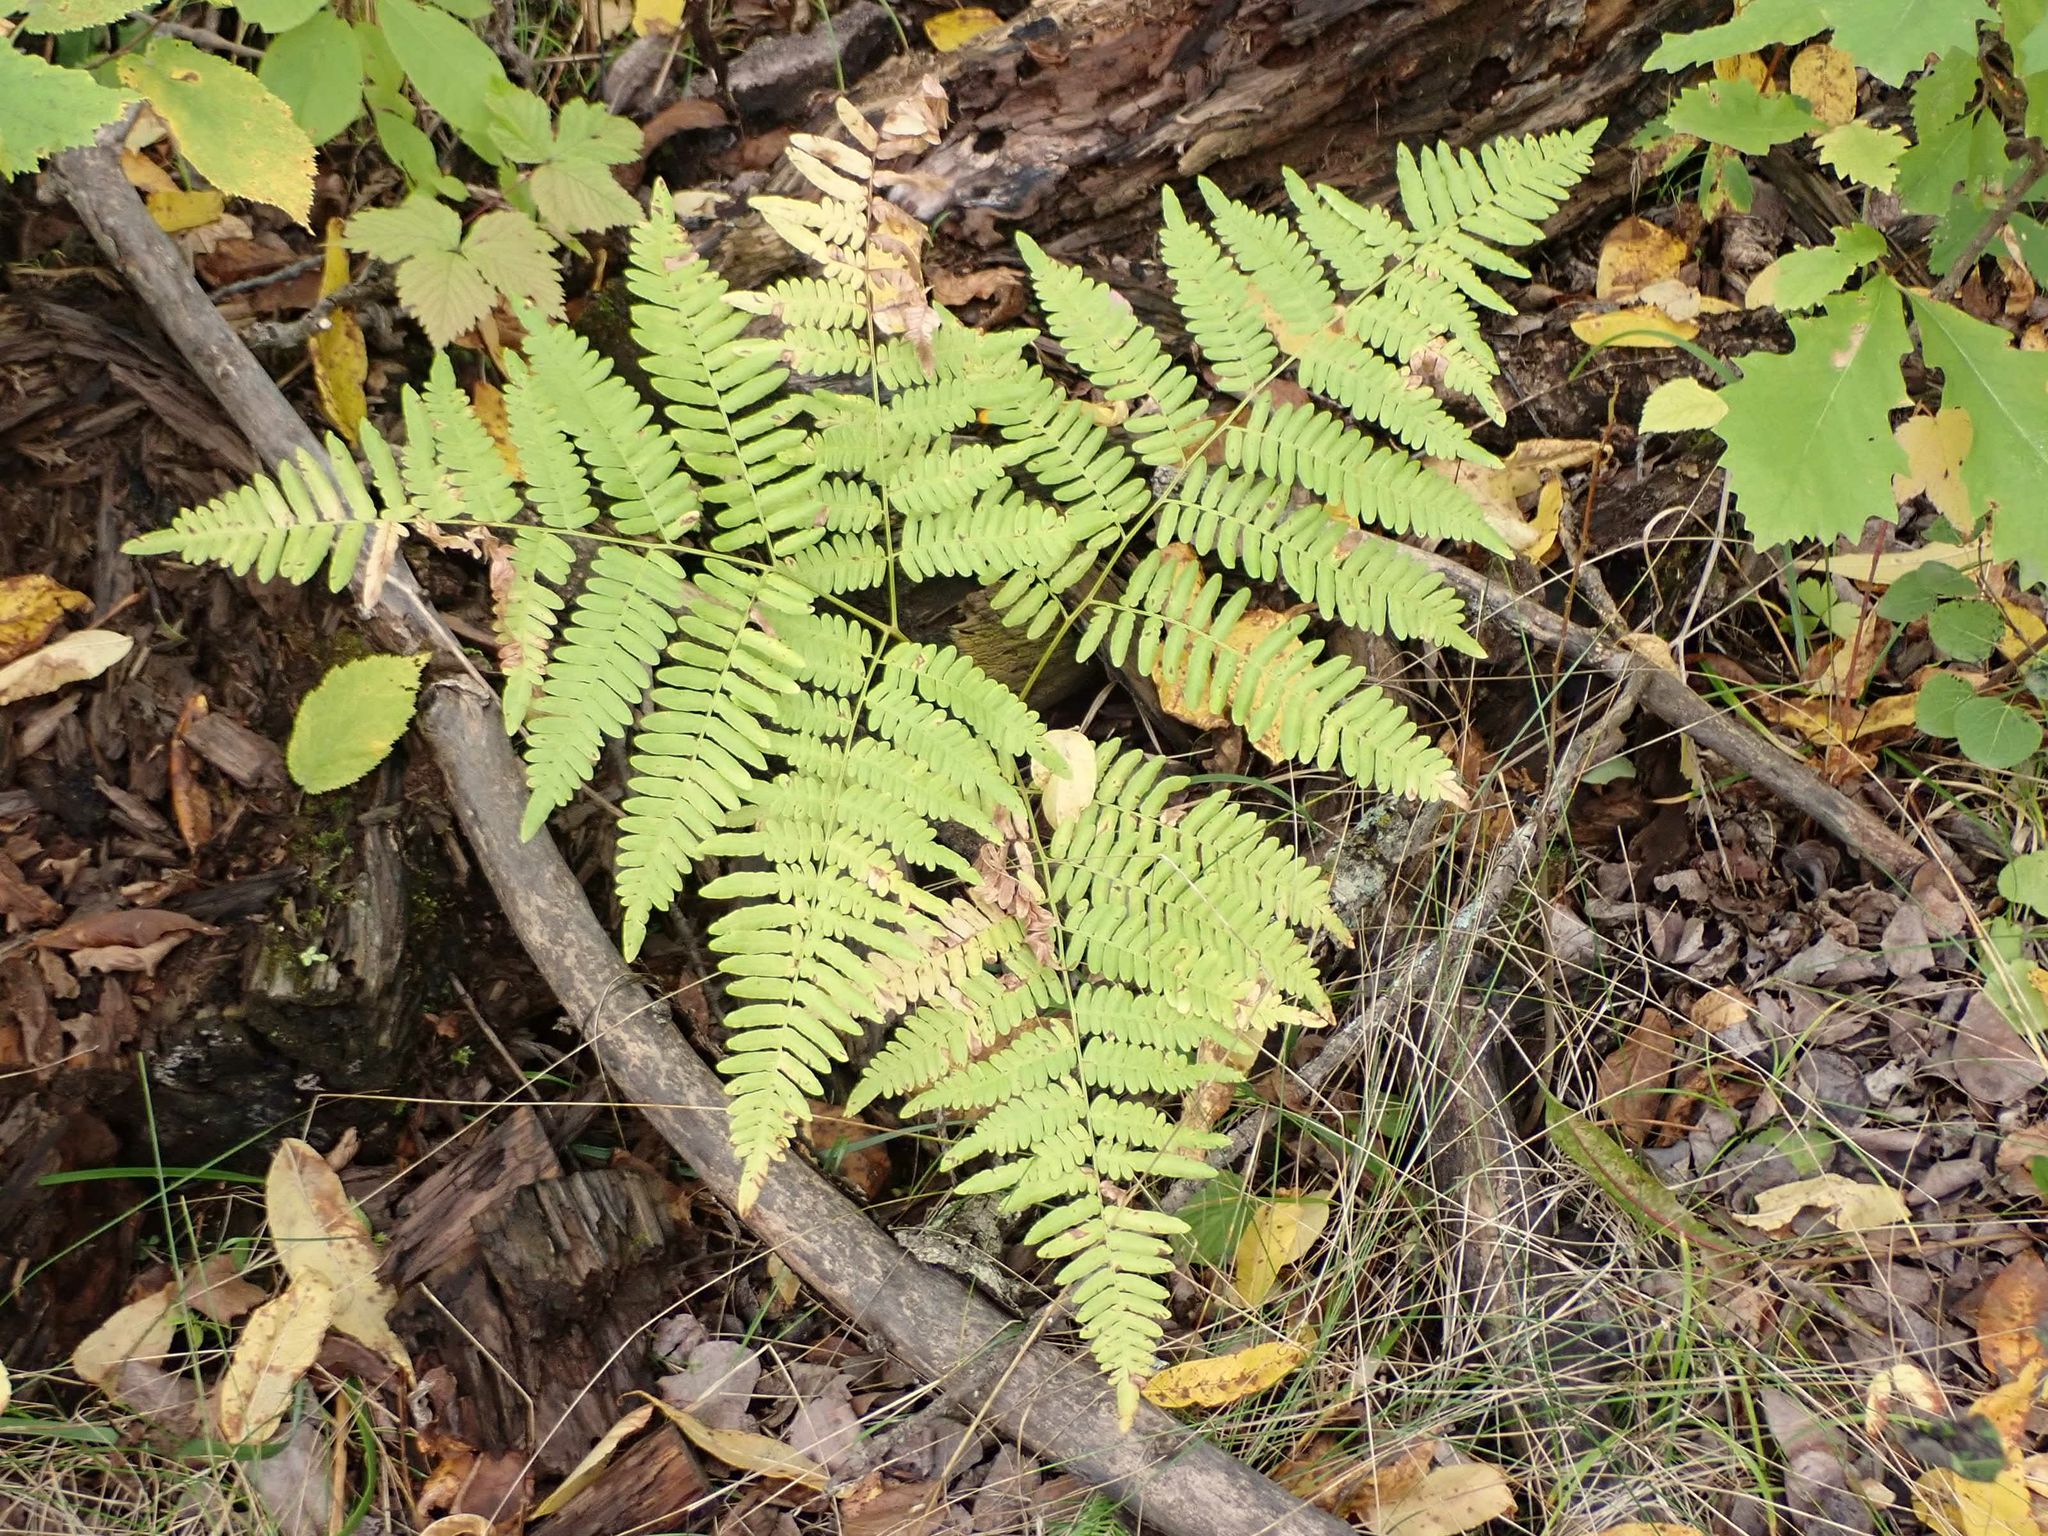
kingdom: Plantae
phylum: Tracheophyta
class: Polypodiopsida
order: Polypodiales
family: Dennstaedtiaceae
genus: Pteridium
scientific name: Pteridium aquilinum
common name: Bracken
